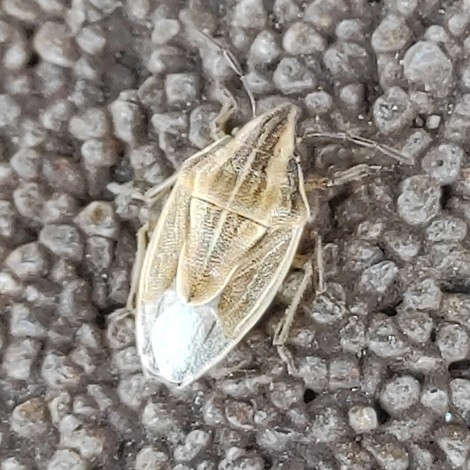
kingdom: Animalia
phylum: Arthropoda
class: Insecta
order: Hemiptera
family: Pentatomidae
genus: Aelia
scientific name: Aelia acuminata
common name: Bishop's mitre
